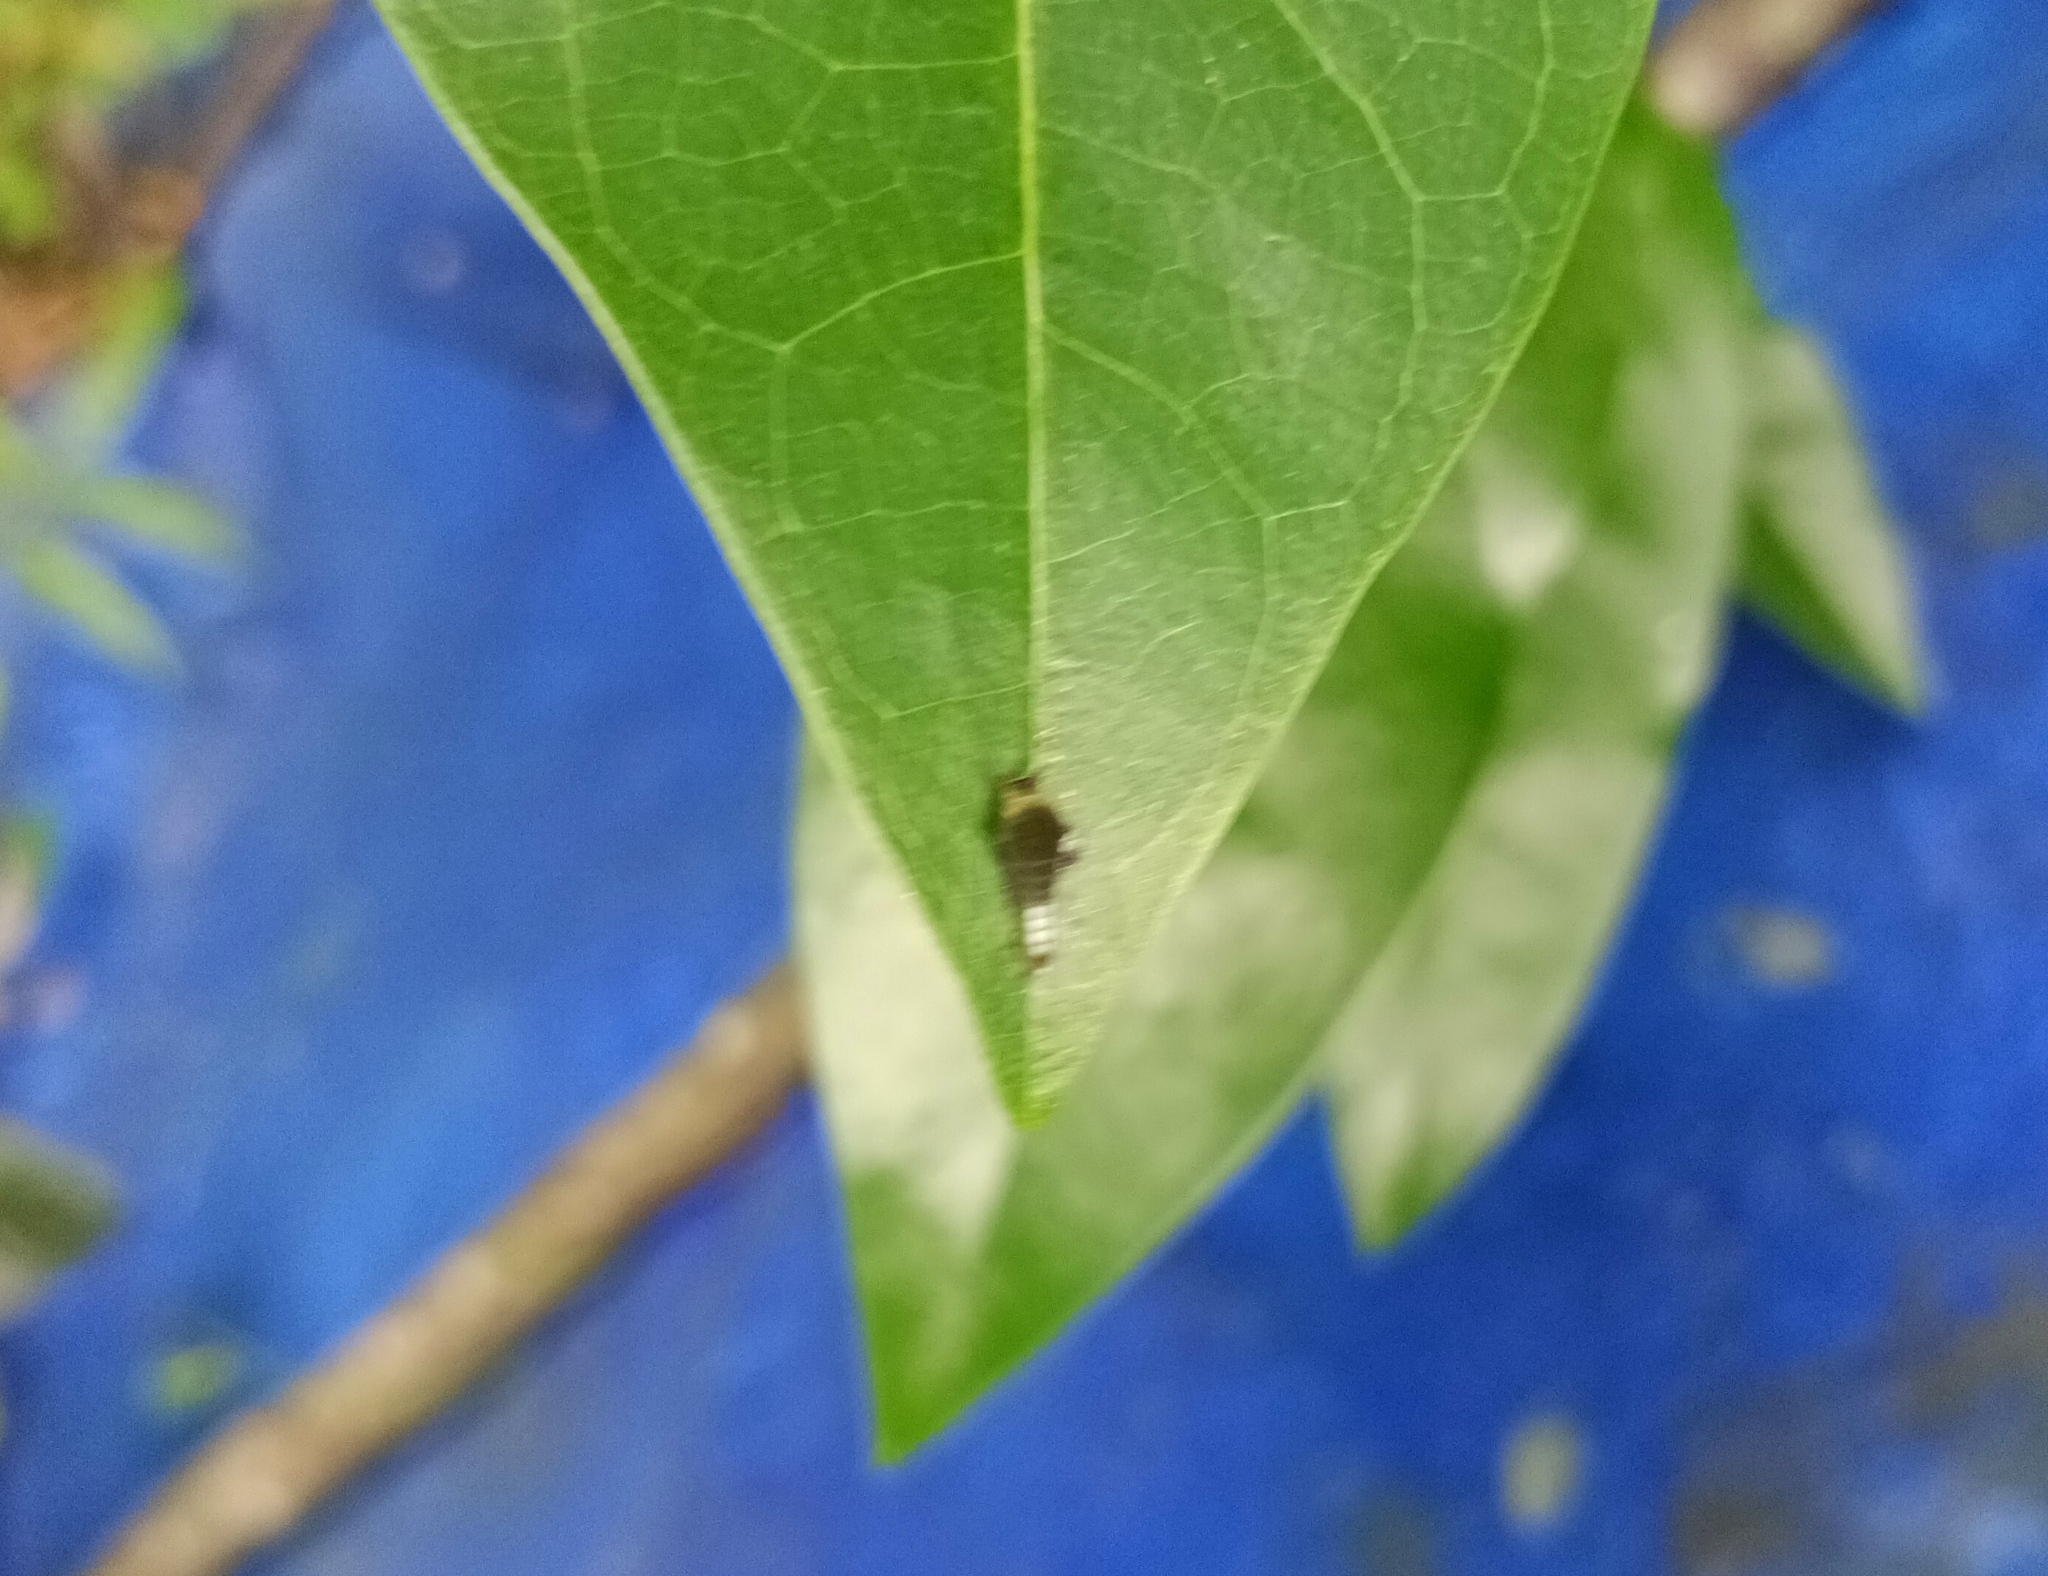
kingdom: Animalia
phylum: Arthropoda
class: Insecta
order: Lepidoptera
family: Papilionidae
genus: Graphium
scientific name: Graphium agamemnon
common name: Tailed jay
